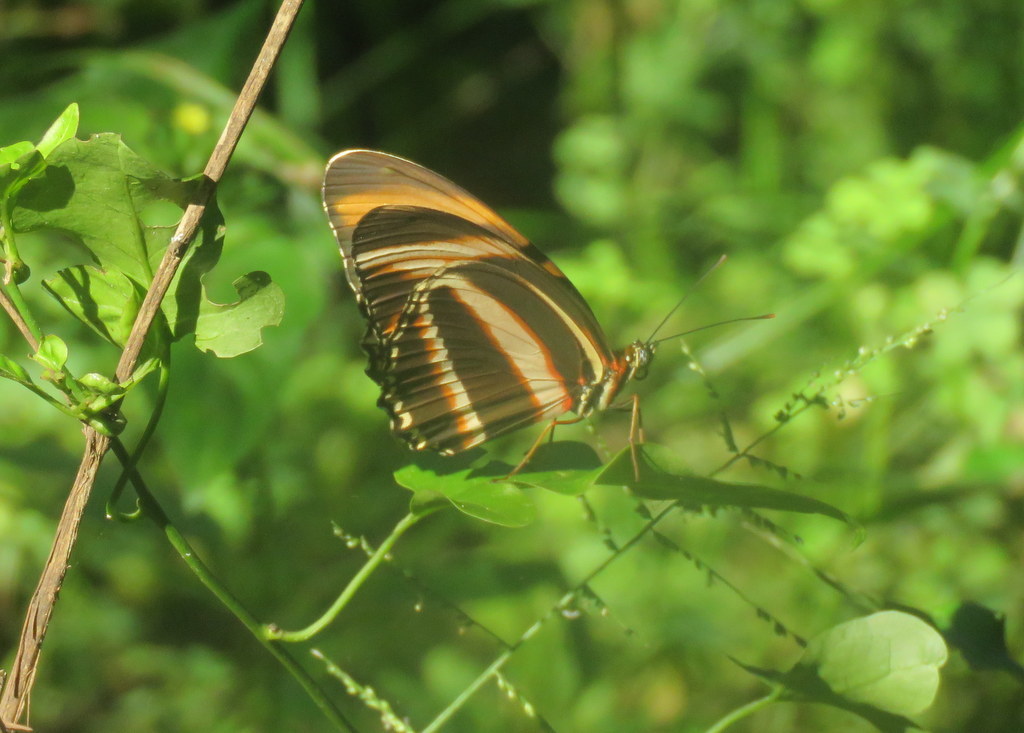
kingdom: Animalia
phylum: Arthropoda
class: Insecta
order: Lepidoptera
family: Nymphalidae
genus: Dryadula
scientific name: Dryadula phaetusa
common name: Banded orange heliconian
